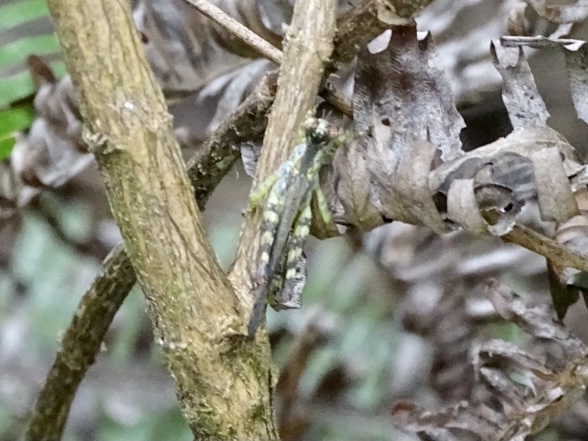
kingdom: Animalia
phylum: Arthropoda
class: Insecta
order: Orthoptera
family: Chorotypidae
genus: China
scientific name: China mantispoides
